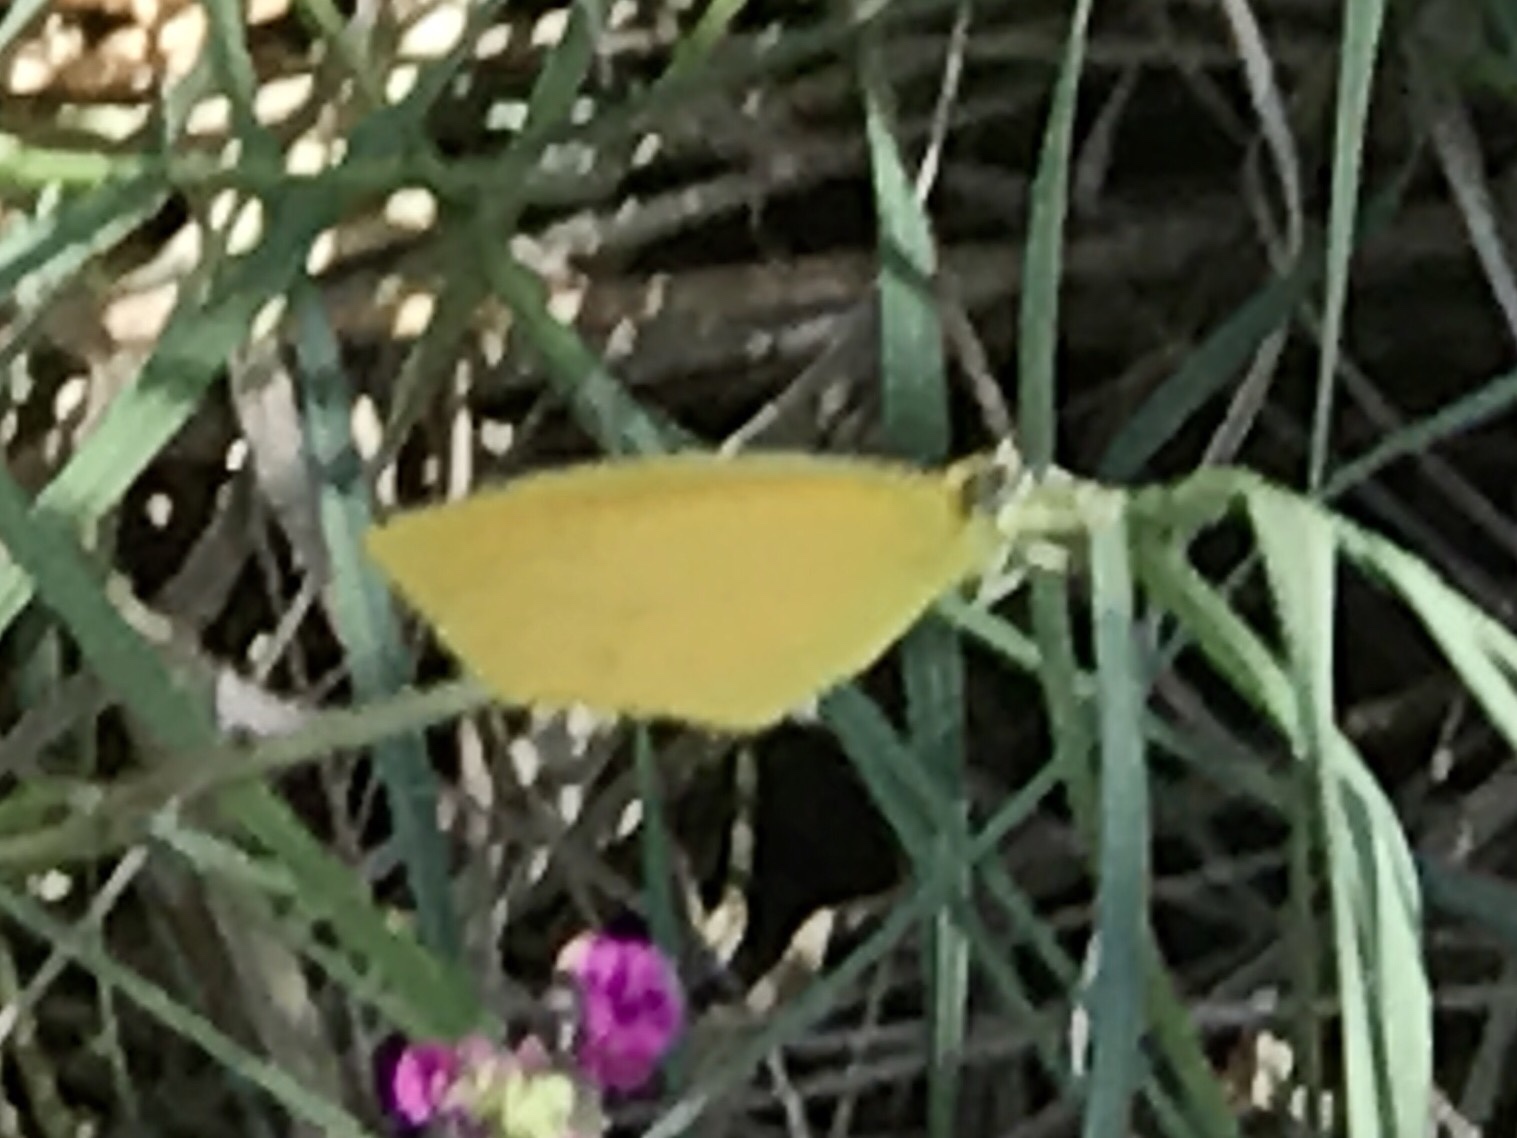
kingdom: Animalia
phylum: Arthropoda
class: Insecta
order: Lepidoptera
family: Pieridae
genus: Pyrisitia
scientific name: Pyrisitia proterpia
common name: Tailed orange
